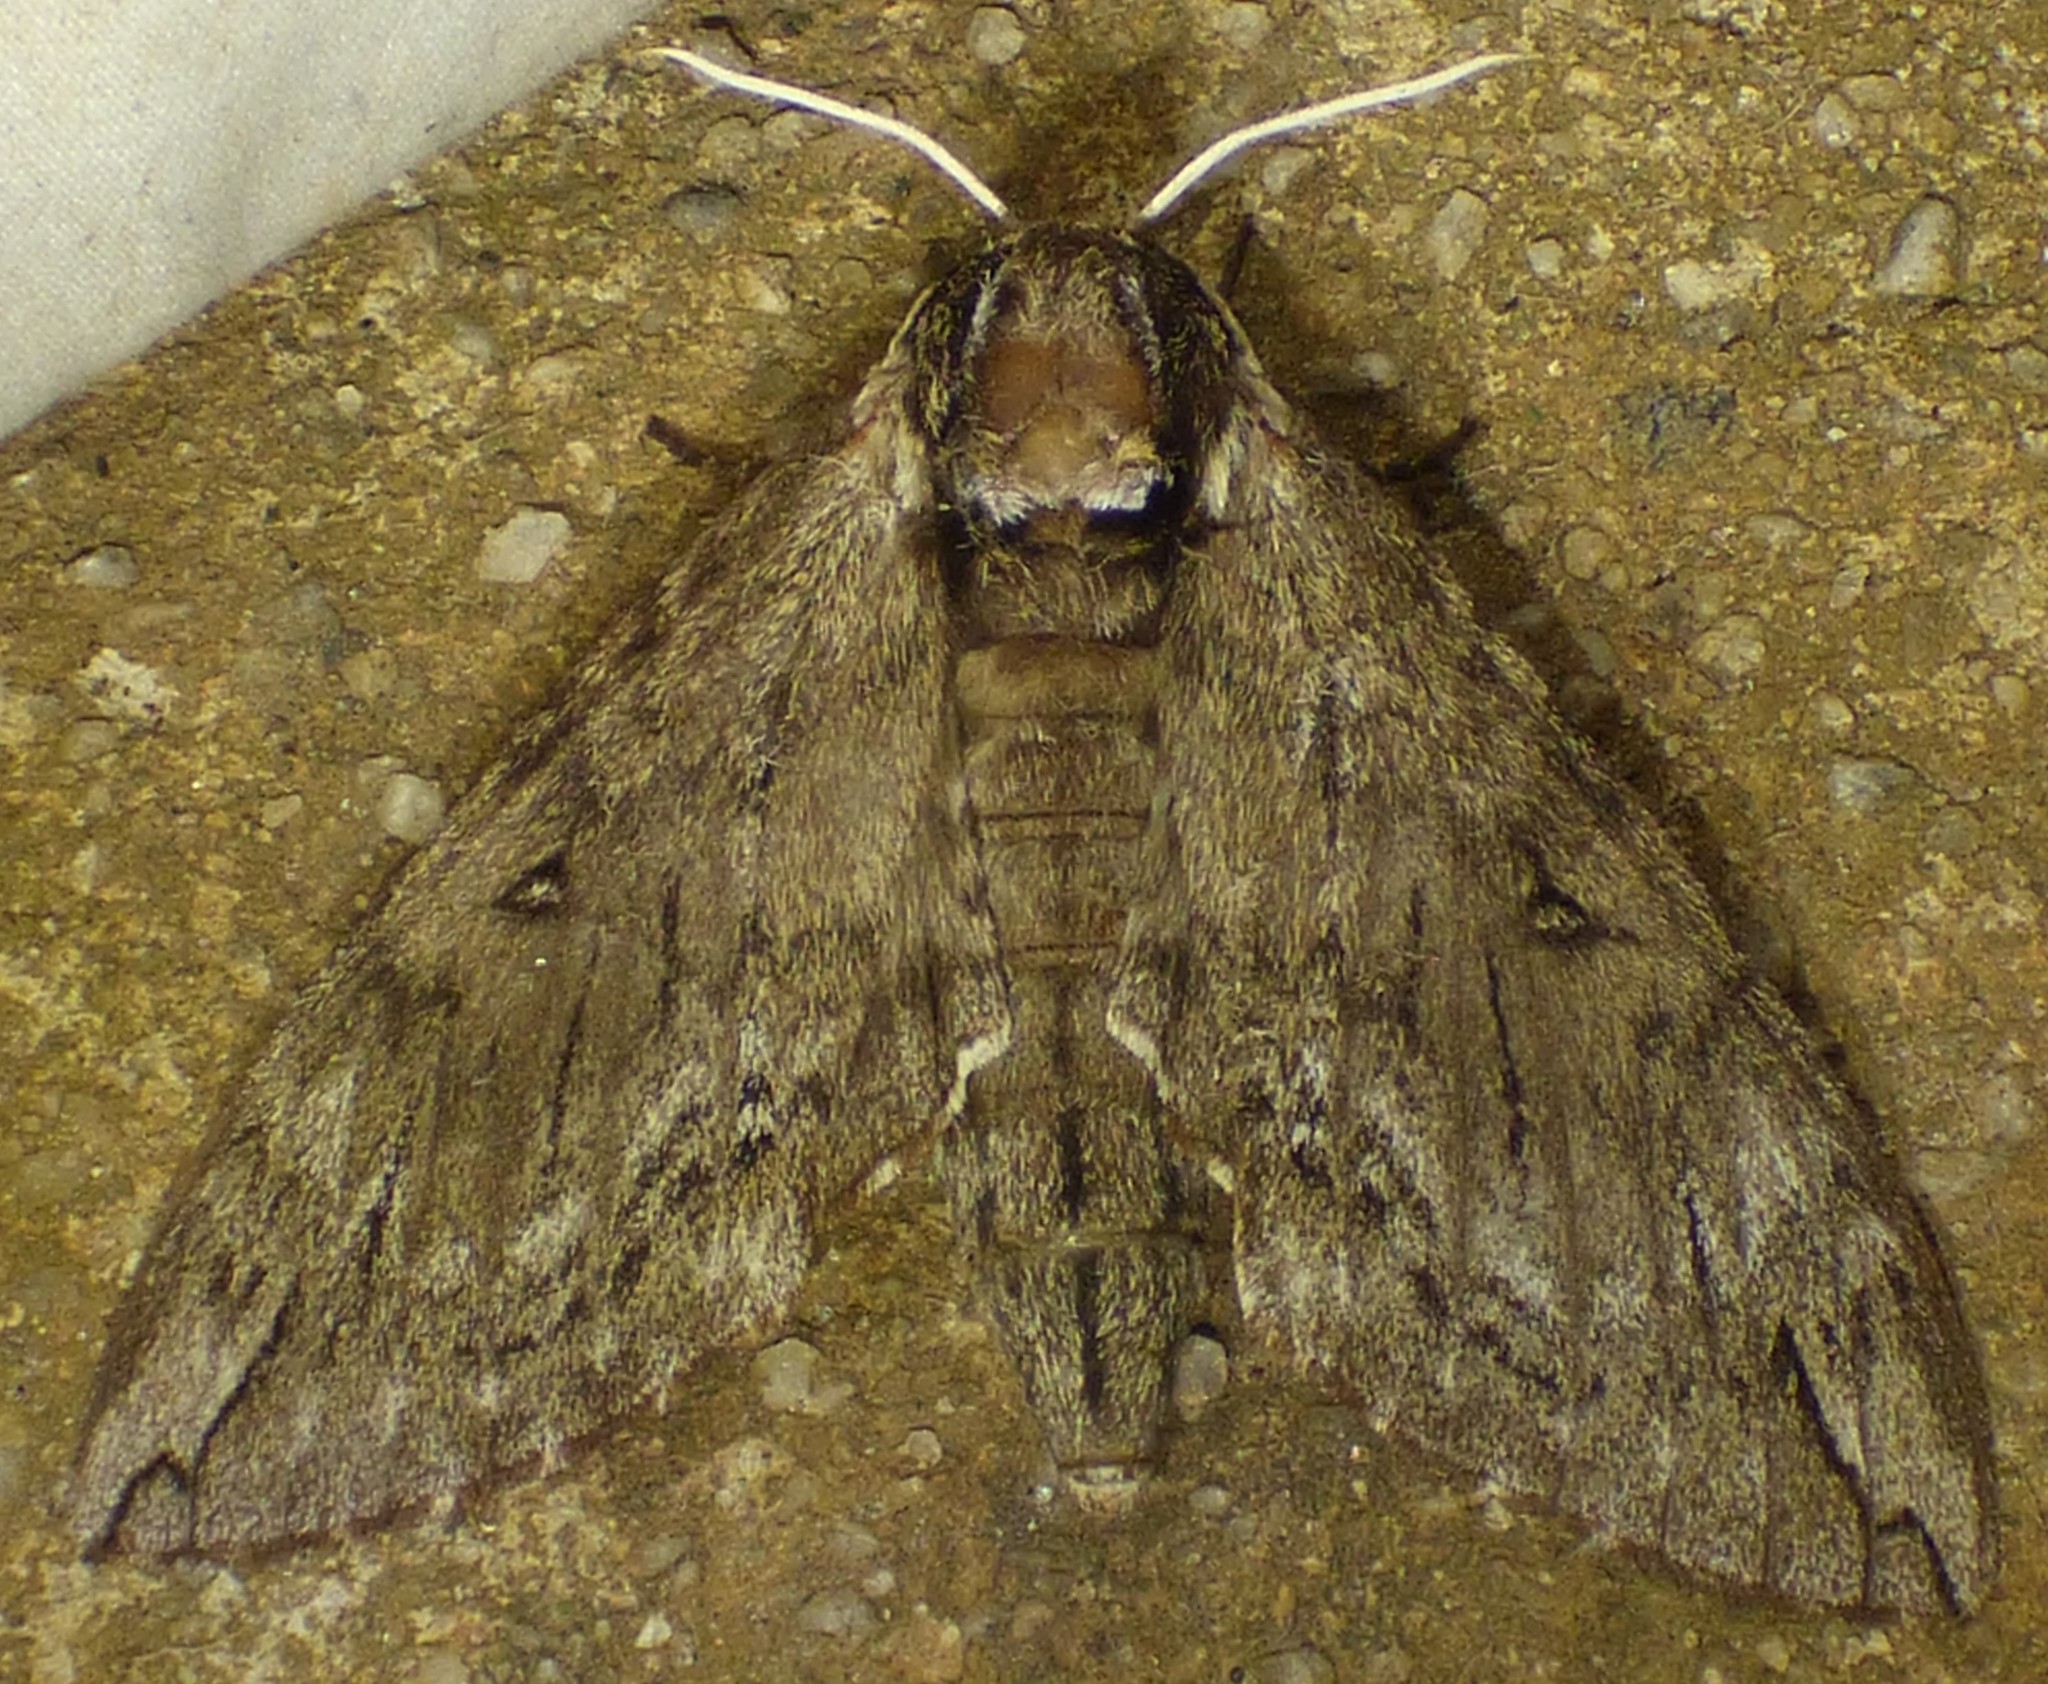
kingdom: Animalia
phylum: Arthropoda
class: Insecta
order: Lepidoptera
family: Sphingidae
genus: Ceratomia
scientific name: Ceratomia catalpae
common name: Catalpa hornworm
